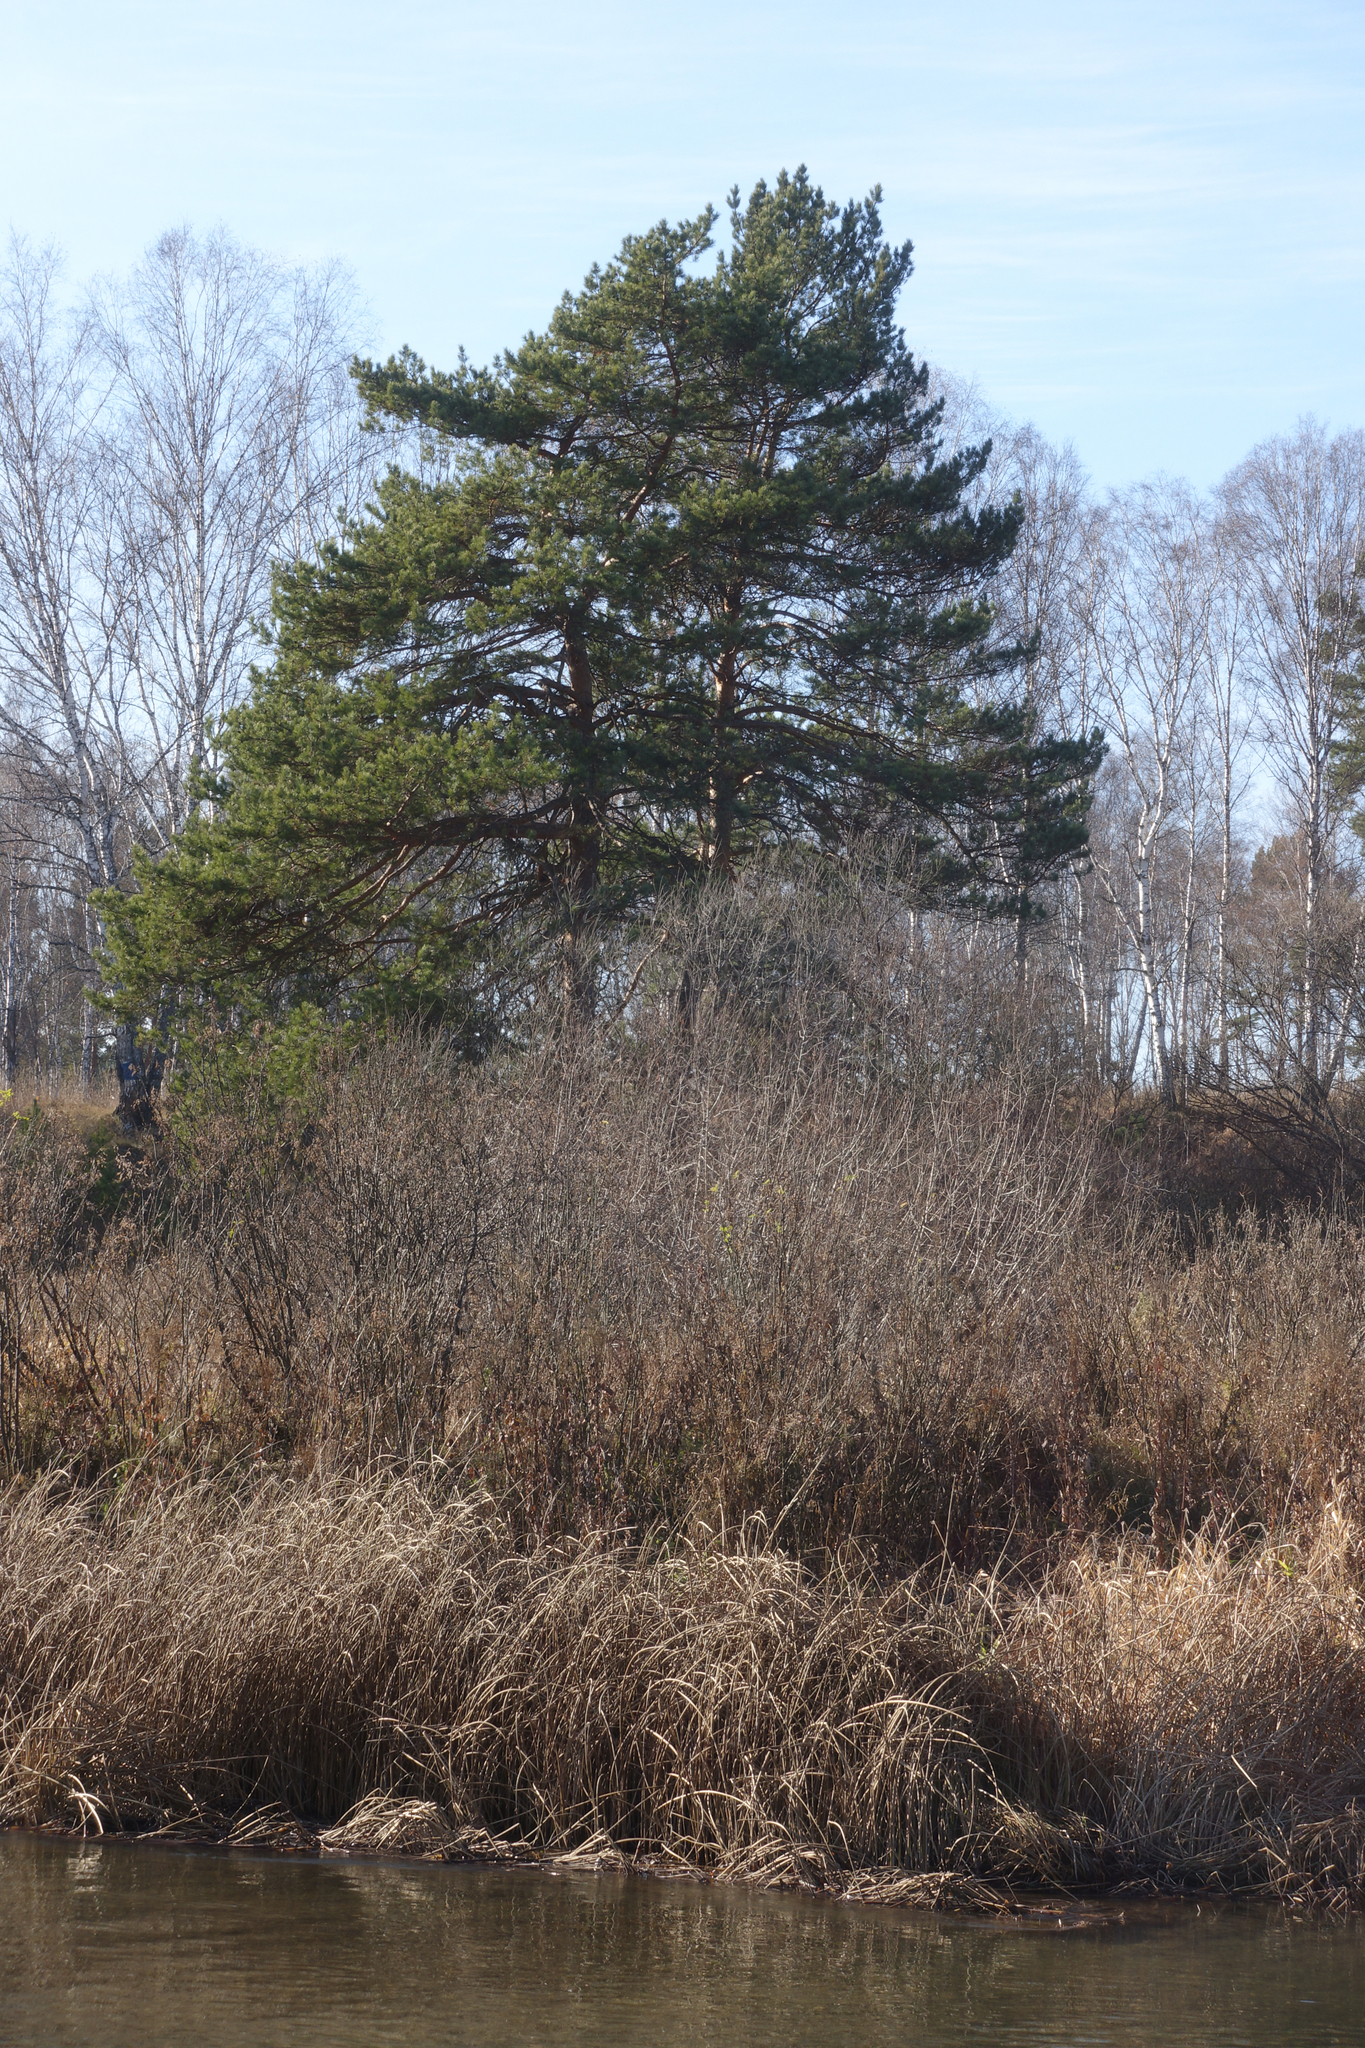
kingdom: Plantae
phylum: Tracheophyta
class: Pinopsida
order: Pinales
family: Pinaceae
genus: Pinus
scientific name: Pinus sylvestris
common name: Scots pine
